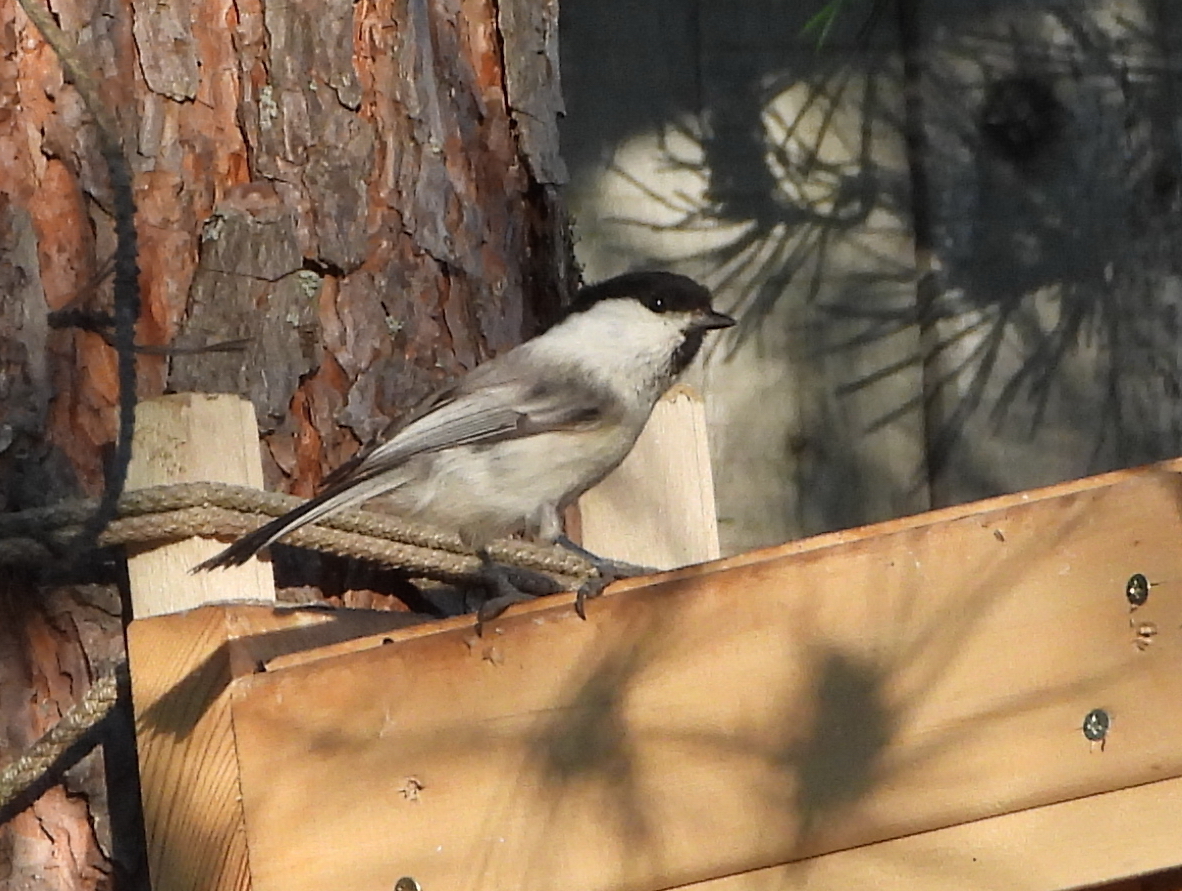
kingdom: Animalia
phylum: Chordata
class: Aves
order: Passeriformes
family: Paridae
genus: Poecile
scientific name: Poecile montanus
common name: Willow tit
